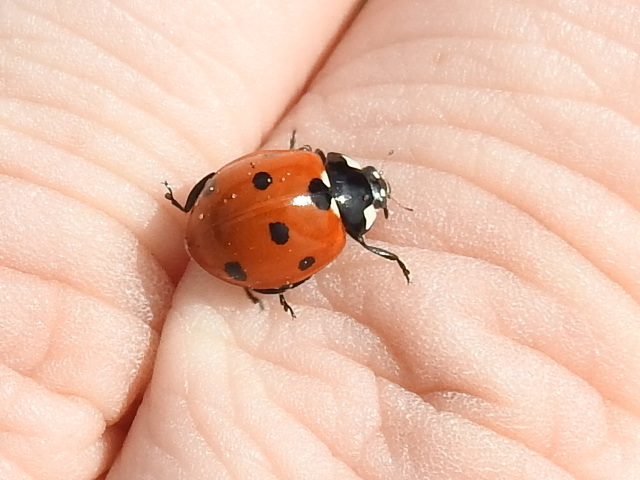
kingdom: Animalia
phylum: Arthropoda
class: Insecta
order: Coleoptera
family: Coccinellidae
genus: Coccinella
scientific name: Coccinella septempunctata
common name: Sevenspotted lady beetle
